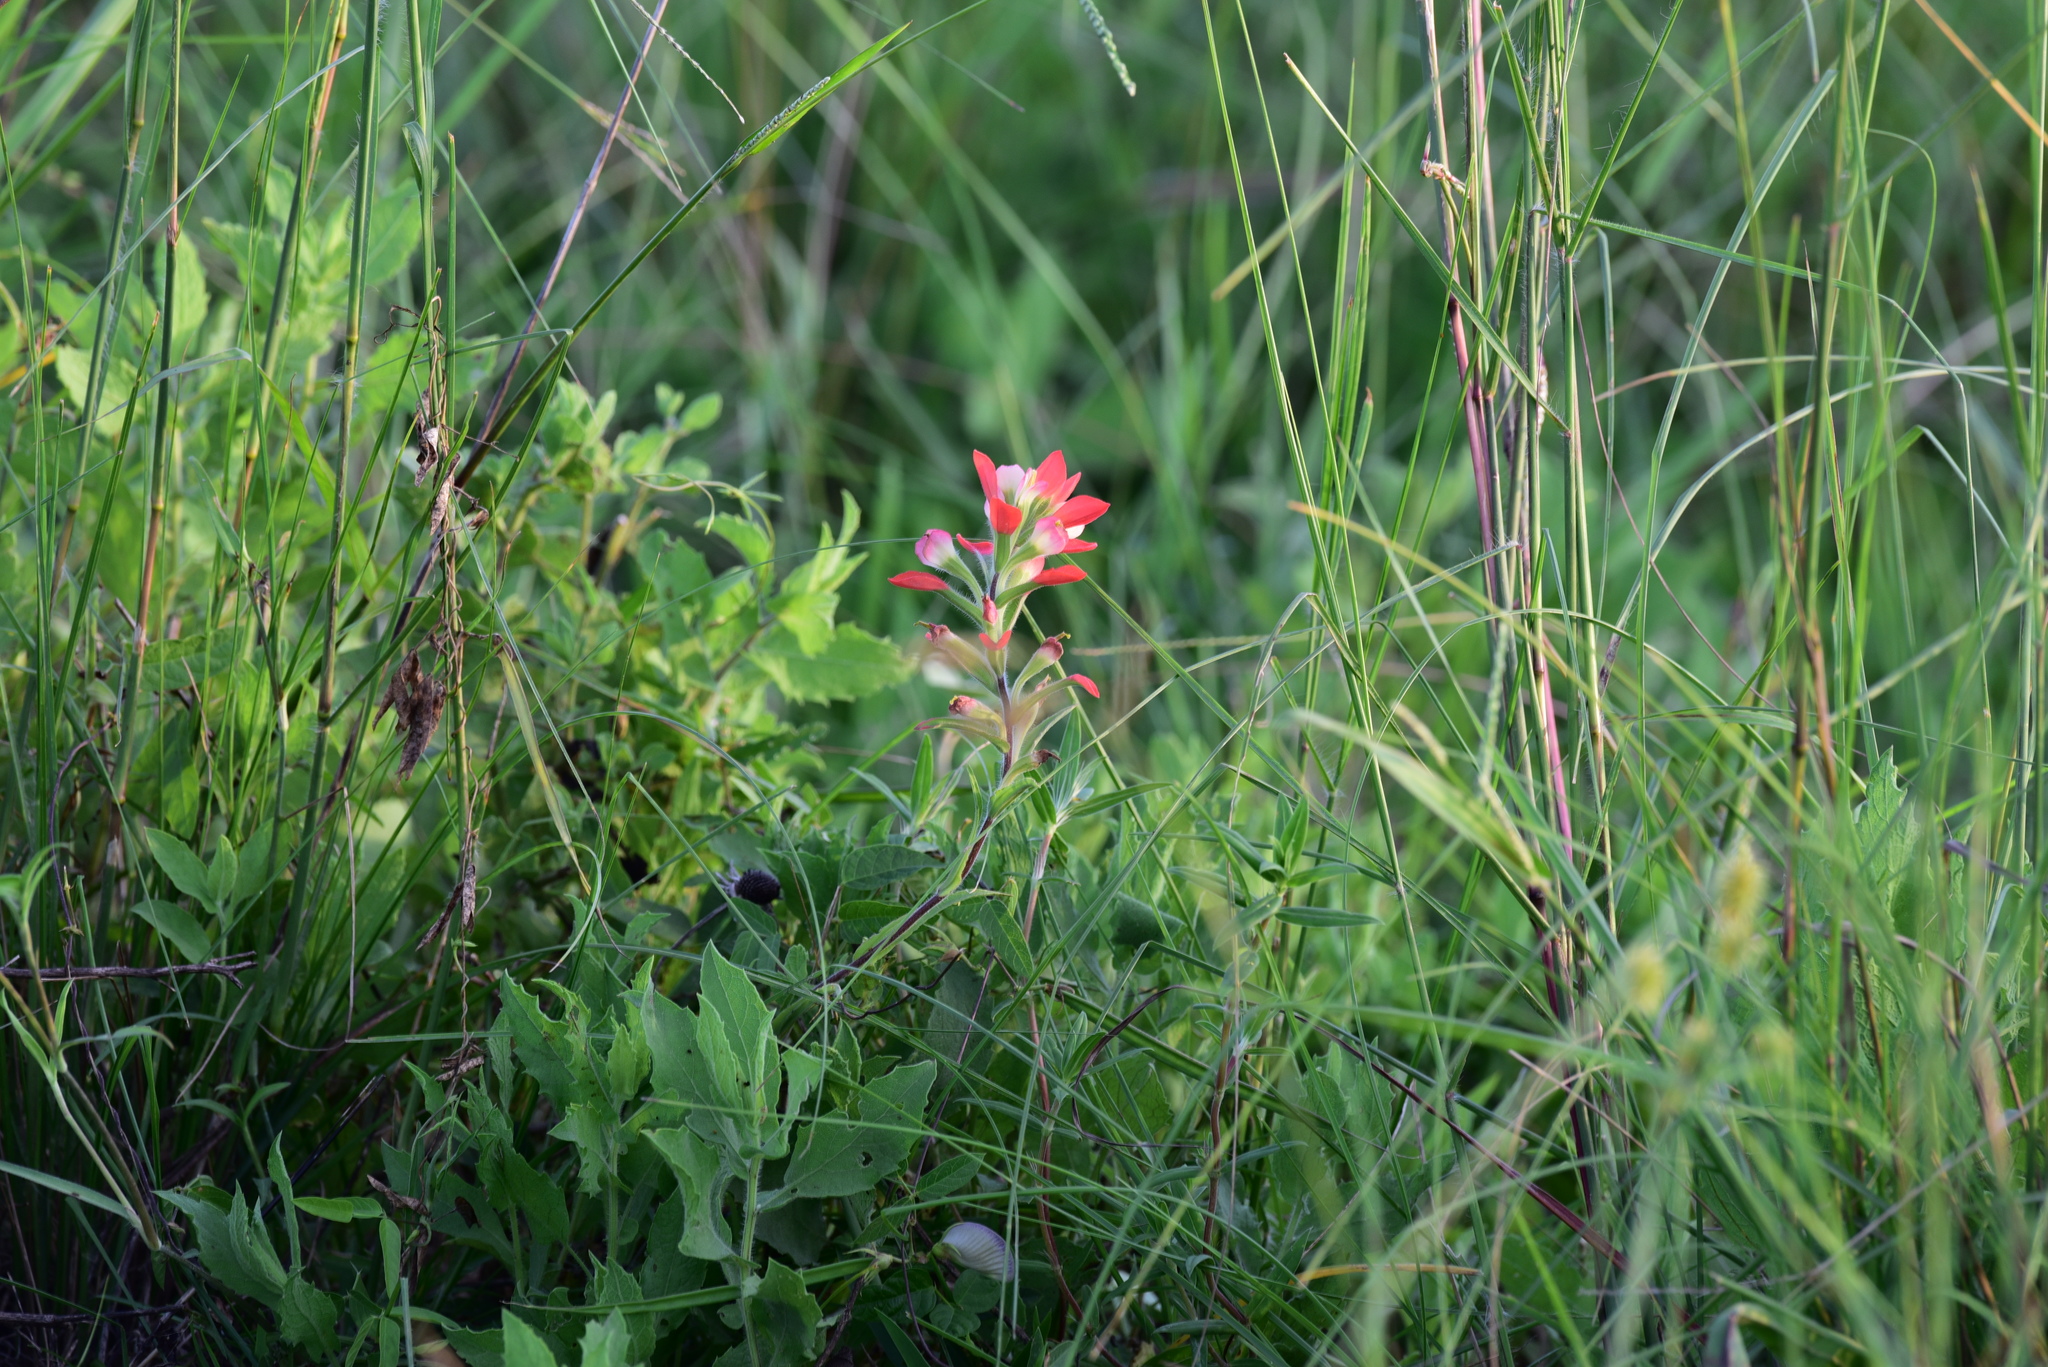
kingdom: Plantae
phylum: Tracheophyta
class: Magnoliopsida
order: Lamiales
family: Orobanchaceae
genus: Castilleja
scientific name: Castilleja indivisa
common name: Texas paintbrush
